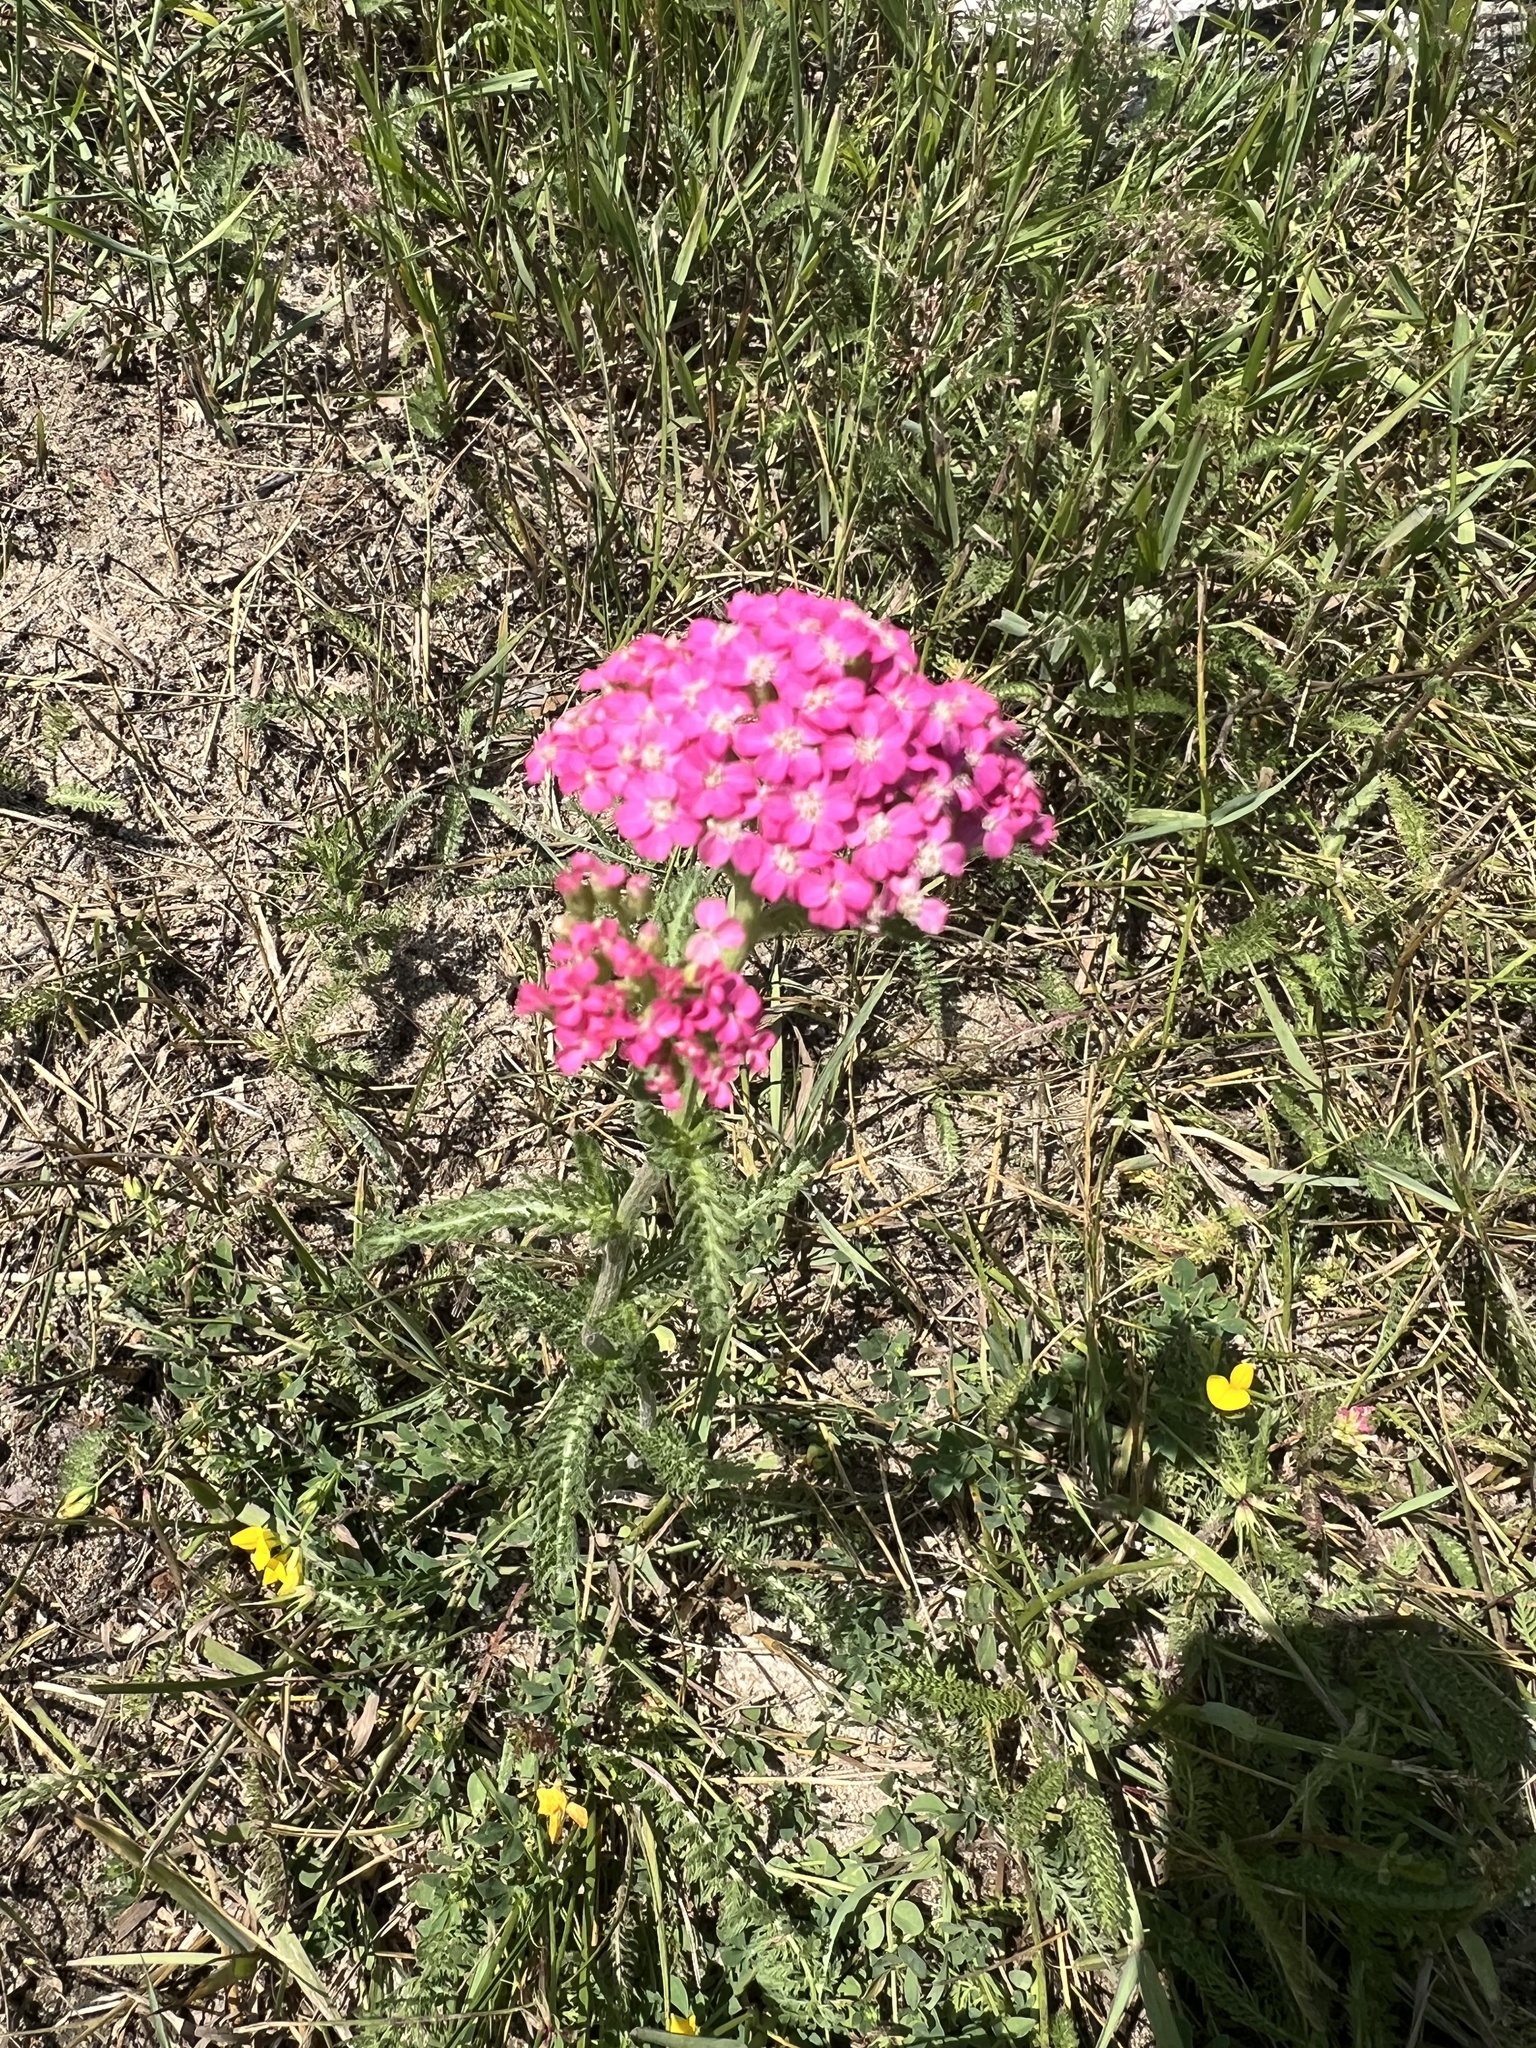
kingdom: Plantae
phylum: Tracheophyta
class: Magnoliopsida
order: Asterales
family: Asteraceae
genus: Achillea
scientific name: Achillea millefolium
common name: Yarrow
